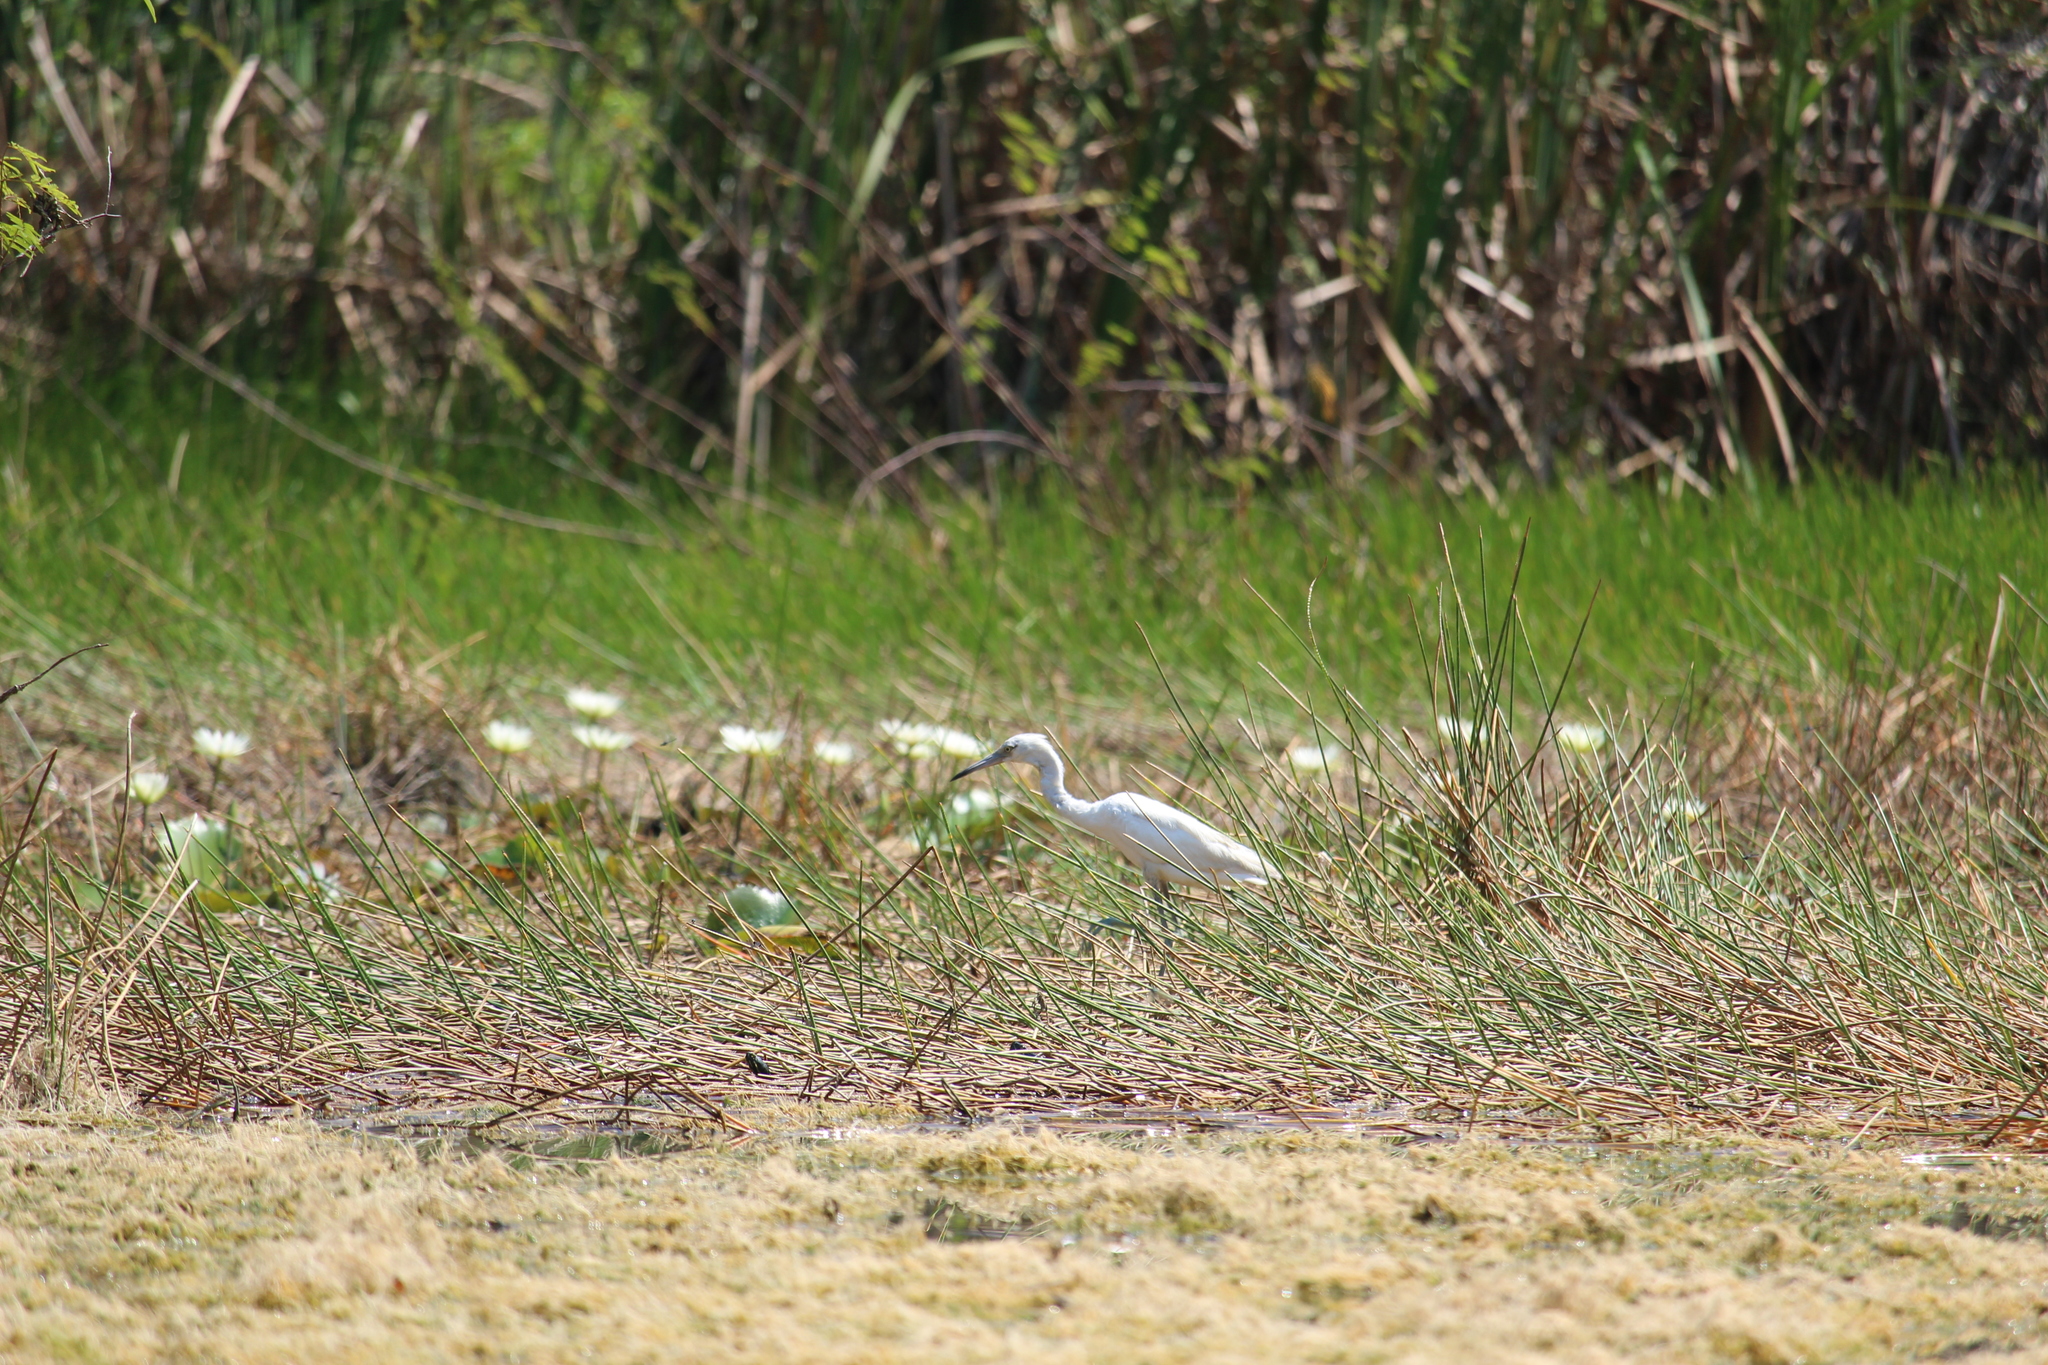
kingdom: Animalia
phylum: Chordata
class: Aves
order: Pelecaniformes
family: Ardeidae
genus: Egretta
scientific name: Egretta caerulea
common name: Little blue heron
